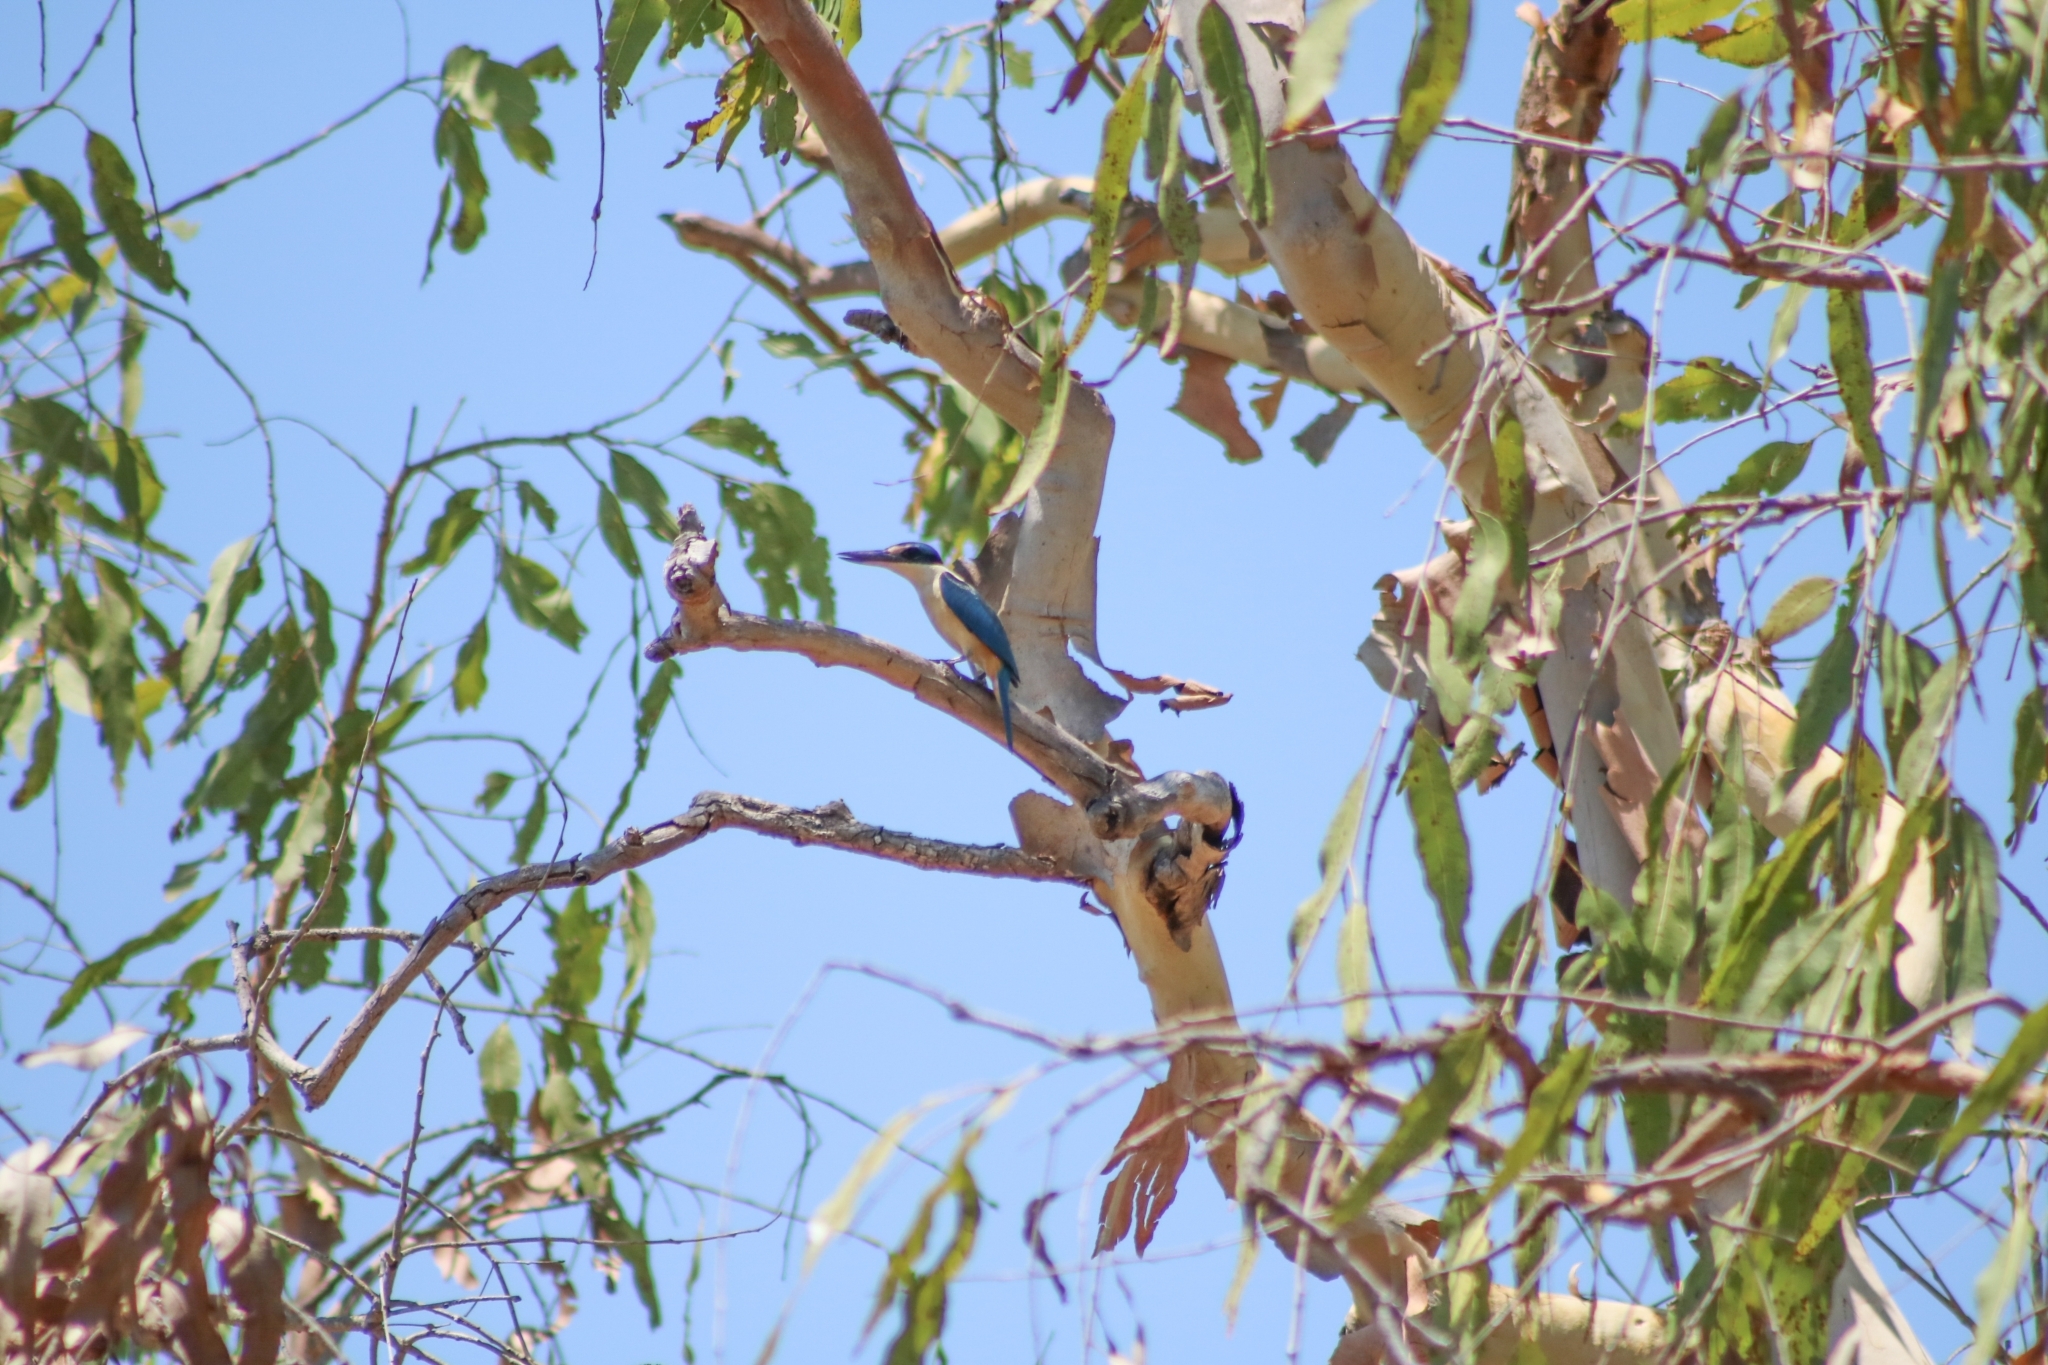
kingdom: Animalia
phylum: Chordata
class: Aves
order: Coraciiformes
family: Alcedinidae
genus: Todiramphus
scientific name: Todiramphus sanctus
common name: Sacred kingfisher
